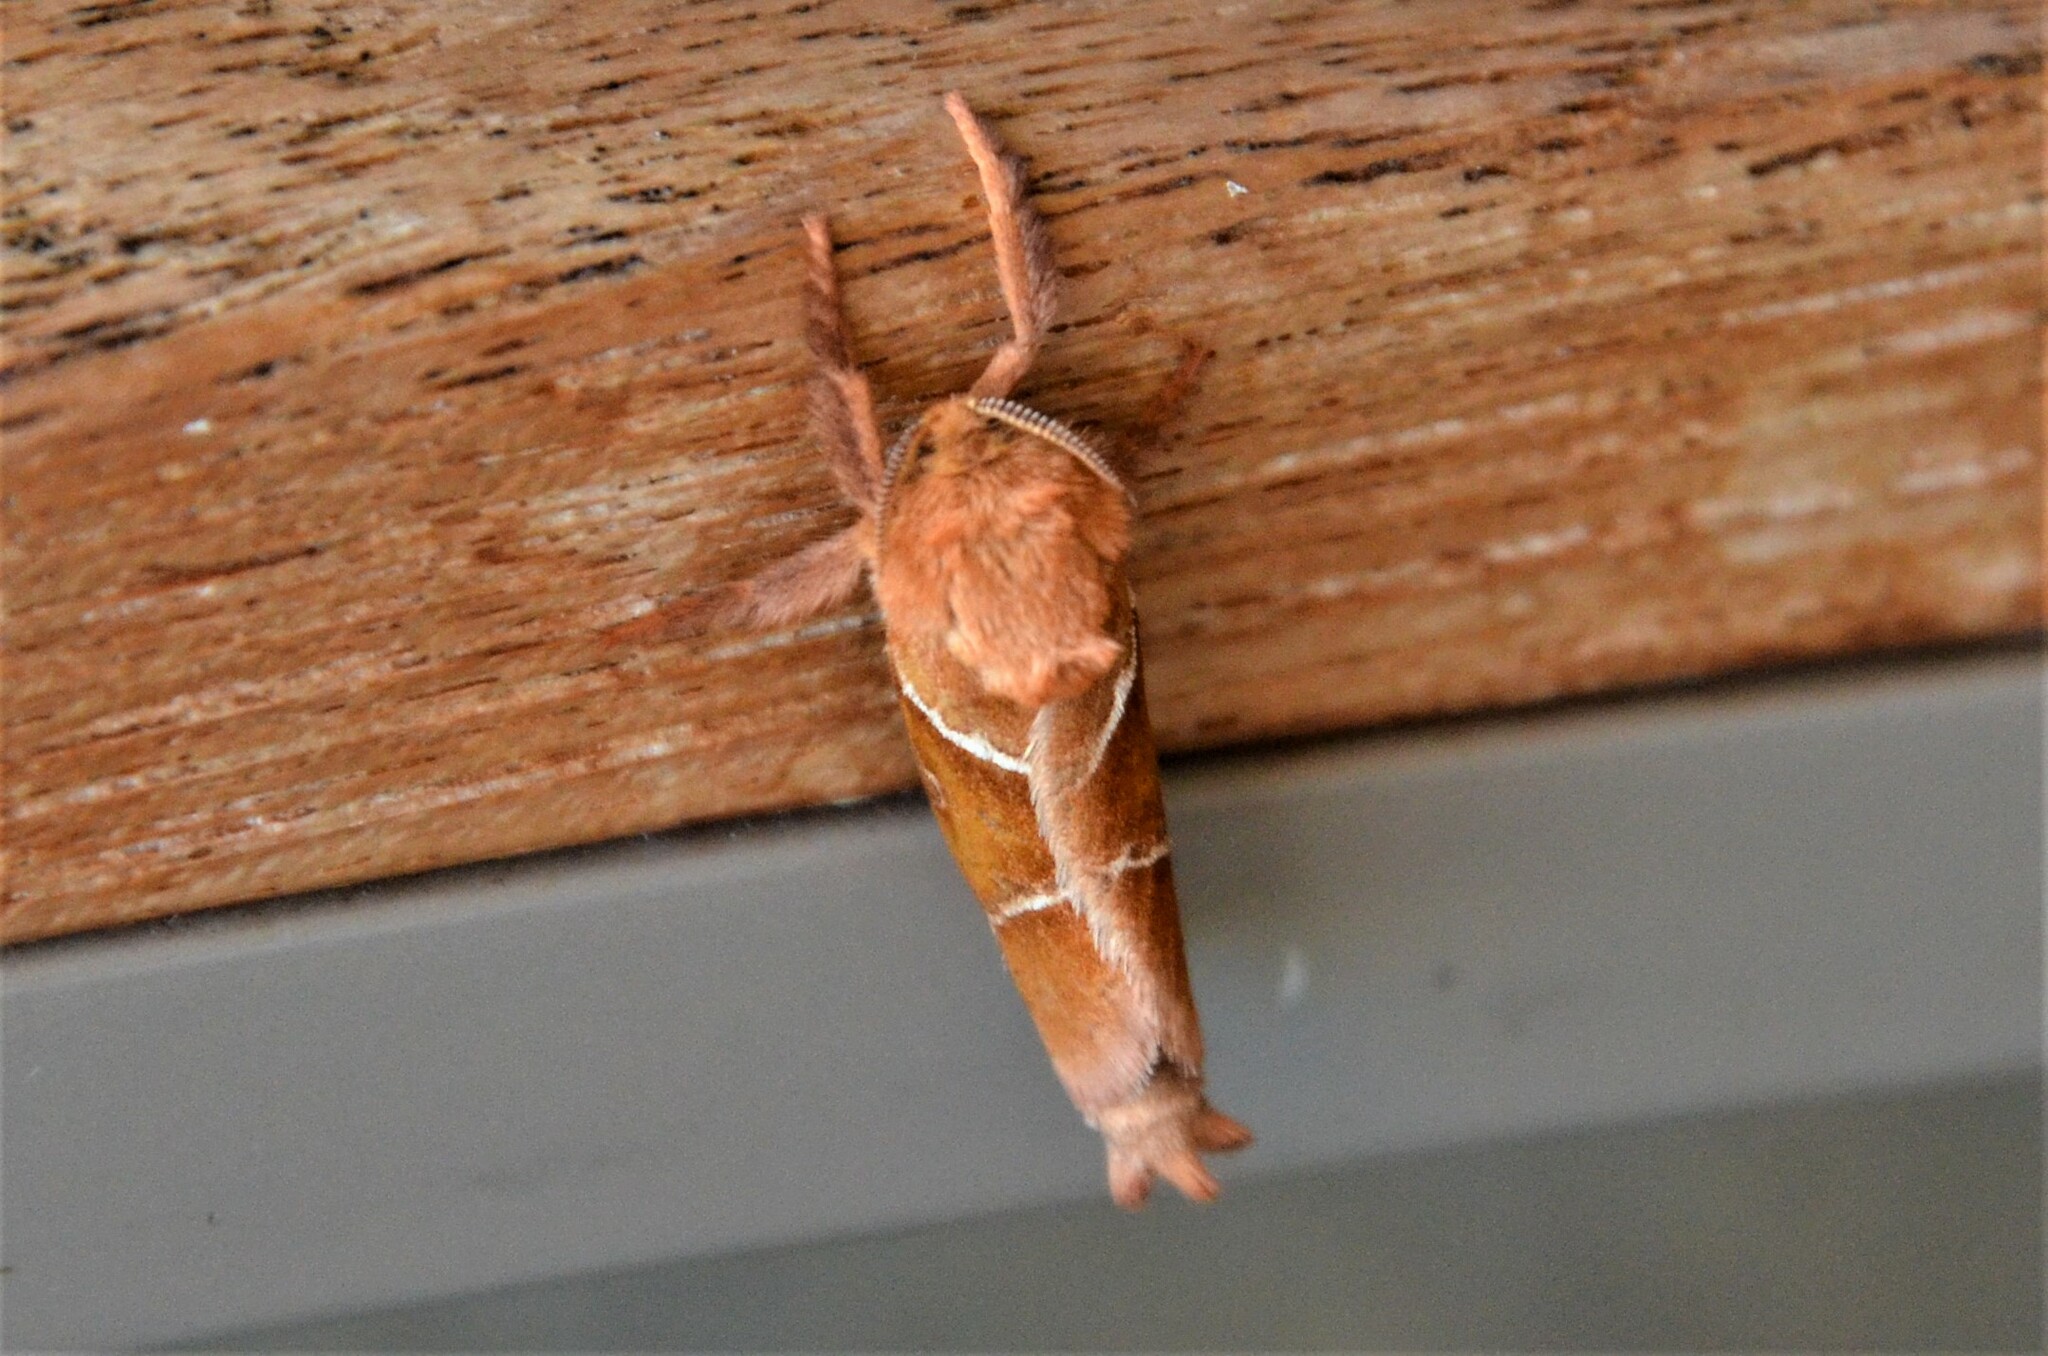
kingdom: Animalia
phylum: Arthropoda
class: Insecta
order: Lepidoptera
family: Hepialidae
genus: Triodia
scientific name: Triodia sylvina
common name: Orange swift
